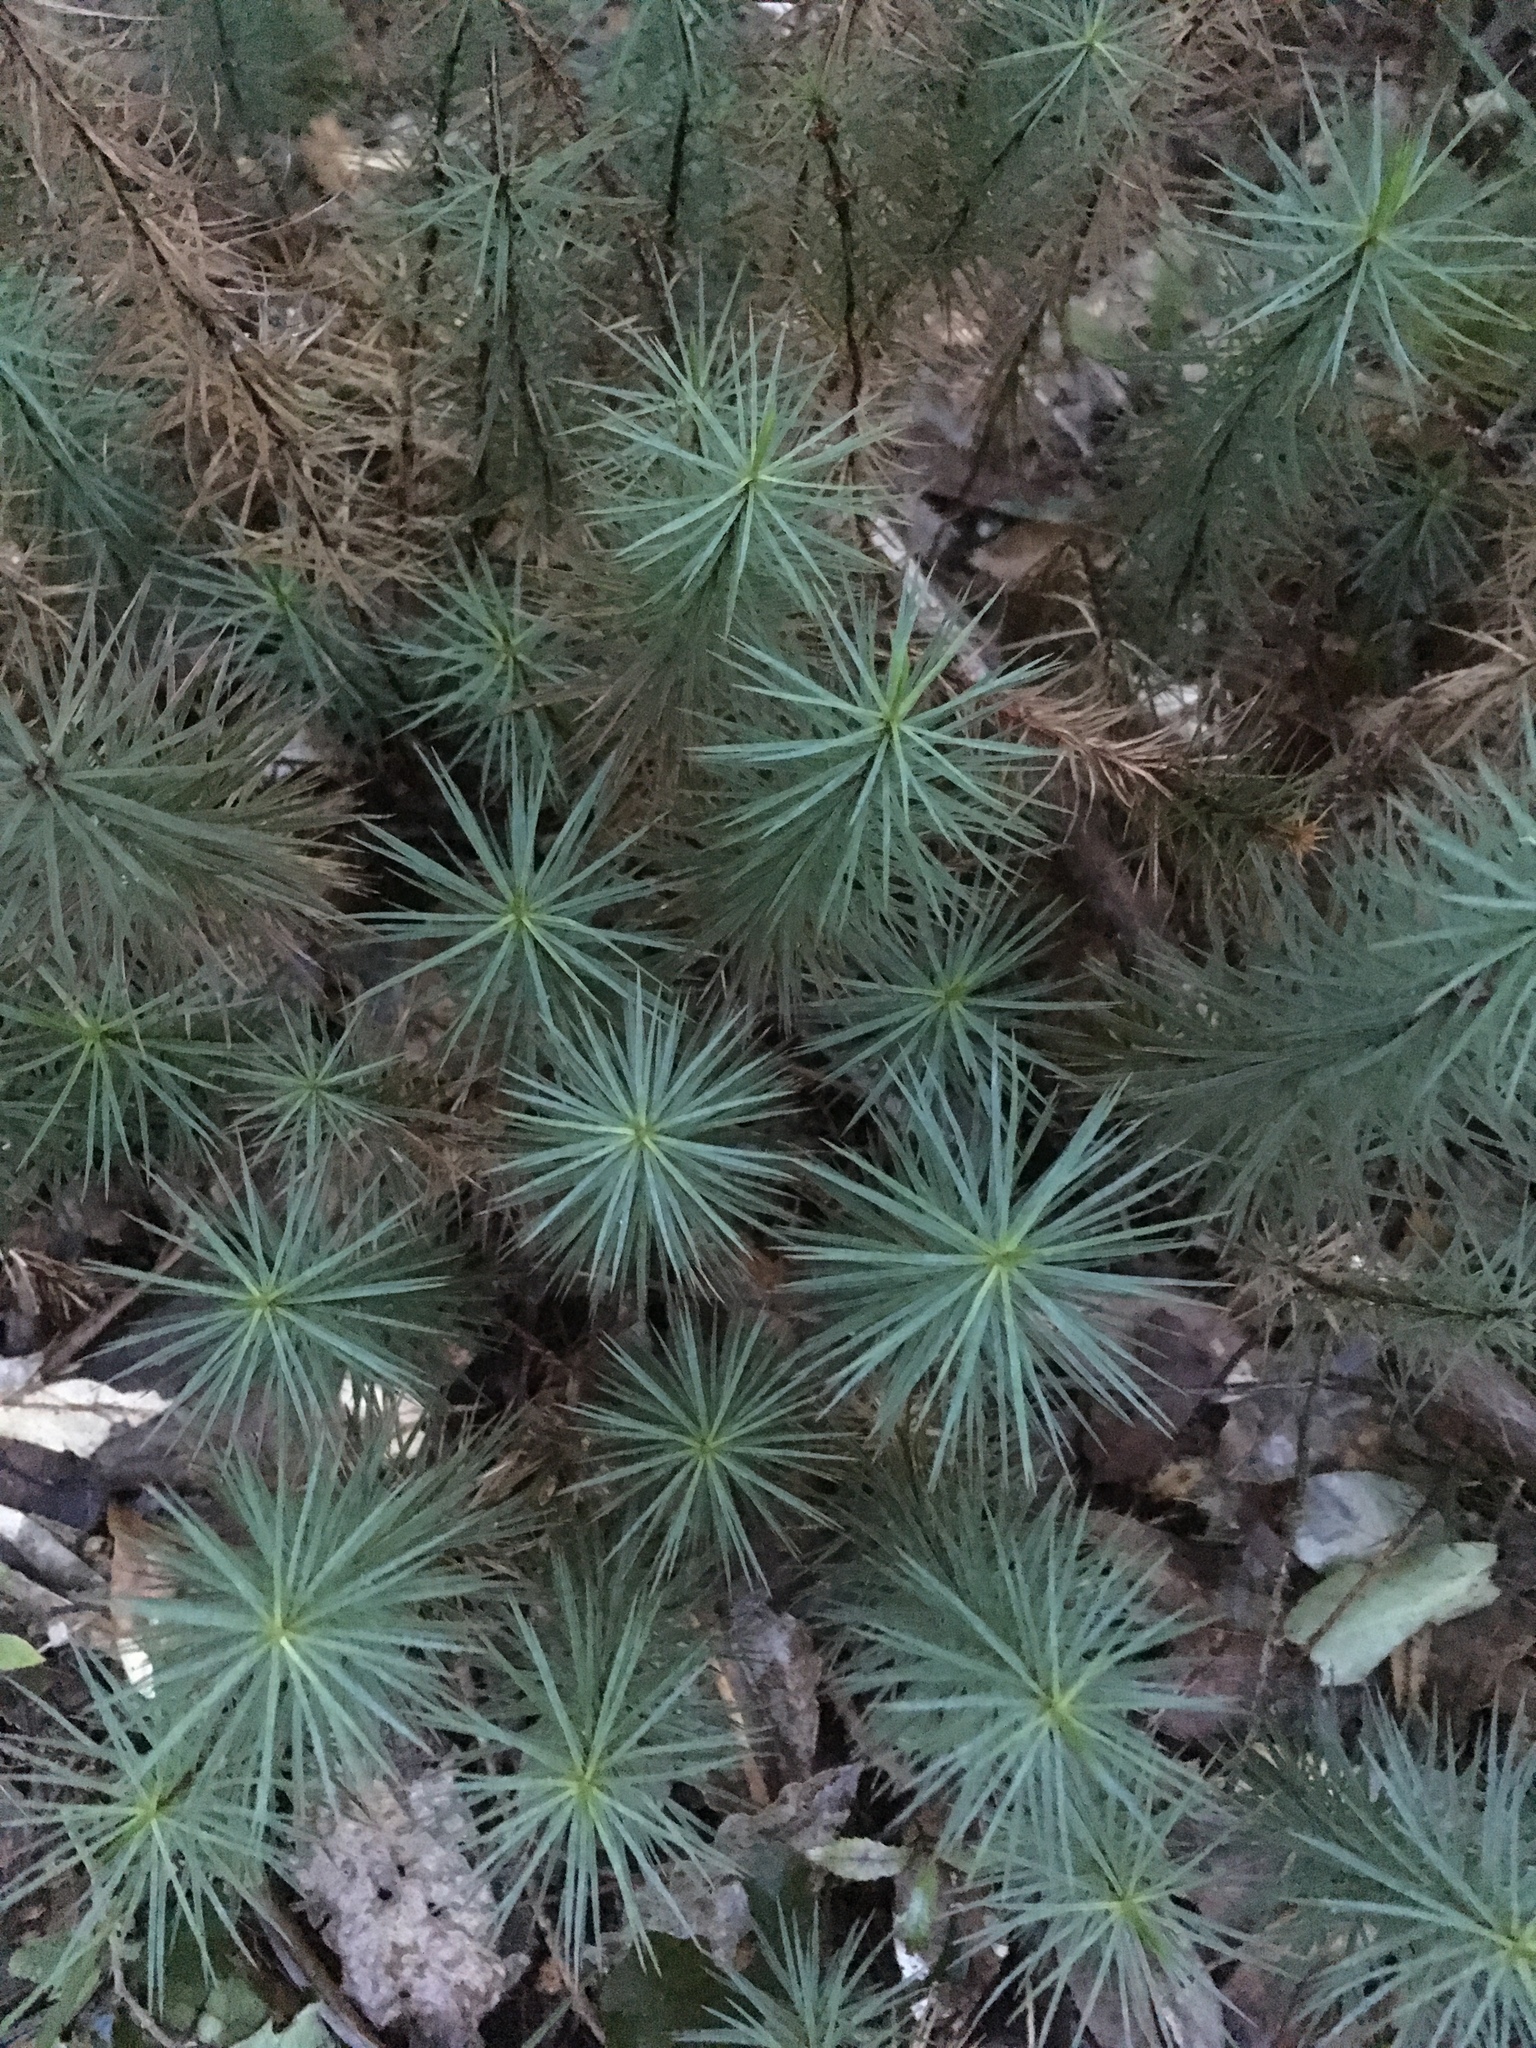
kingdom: Plantae
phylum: Bryophyta
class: Polytrichopsida
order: Polytrichales
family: Polytrichaceae
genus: Dawsonia
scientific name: Dawsonia superba
